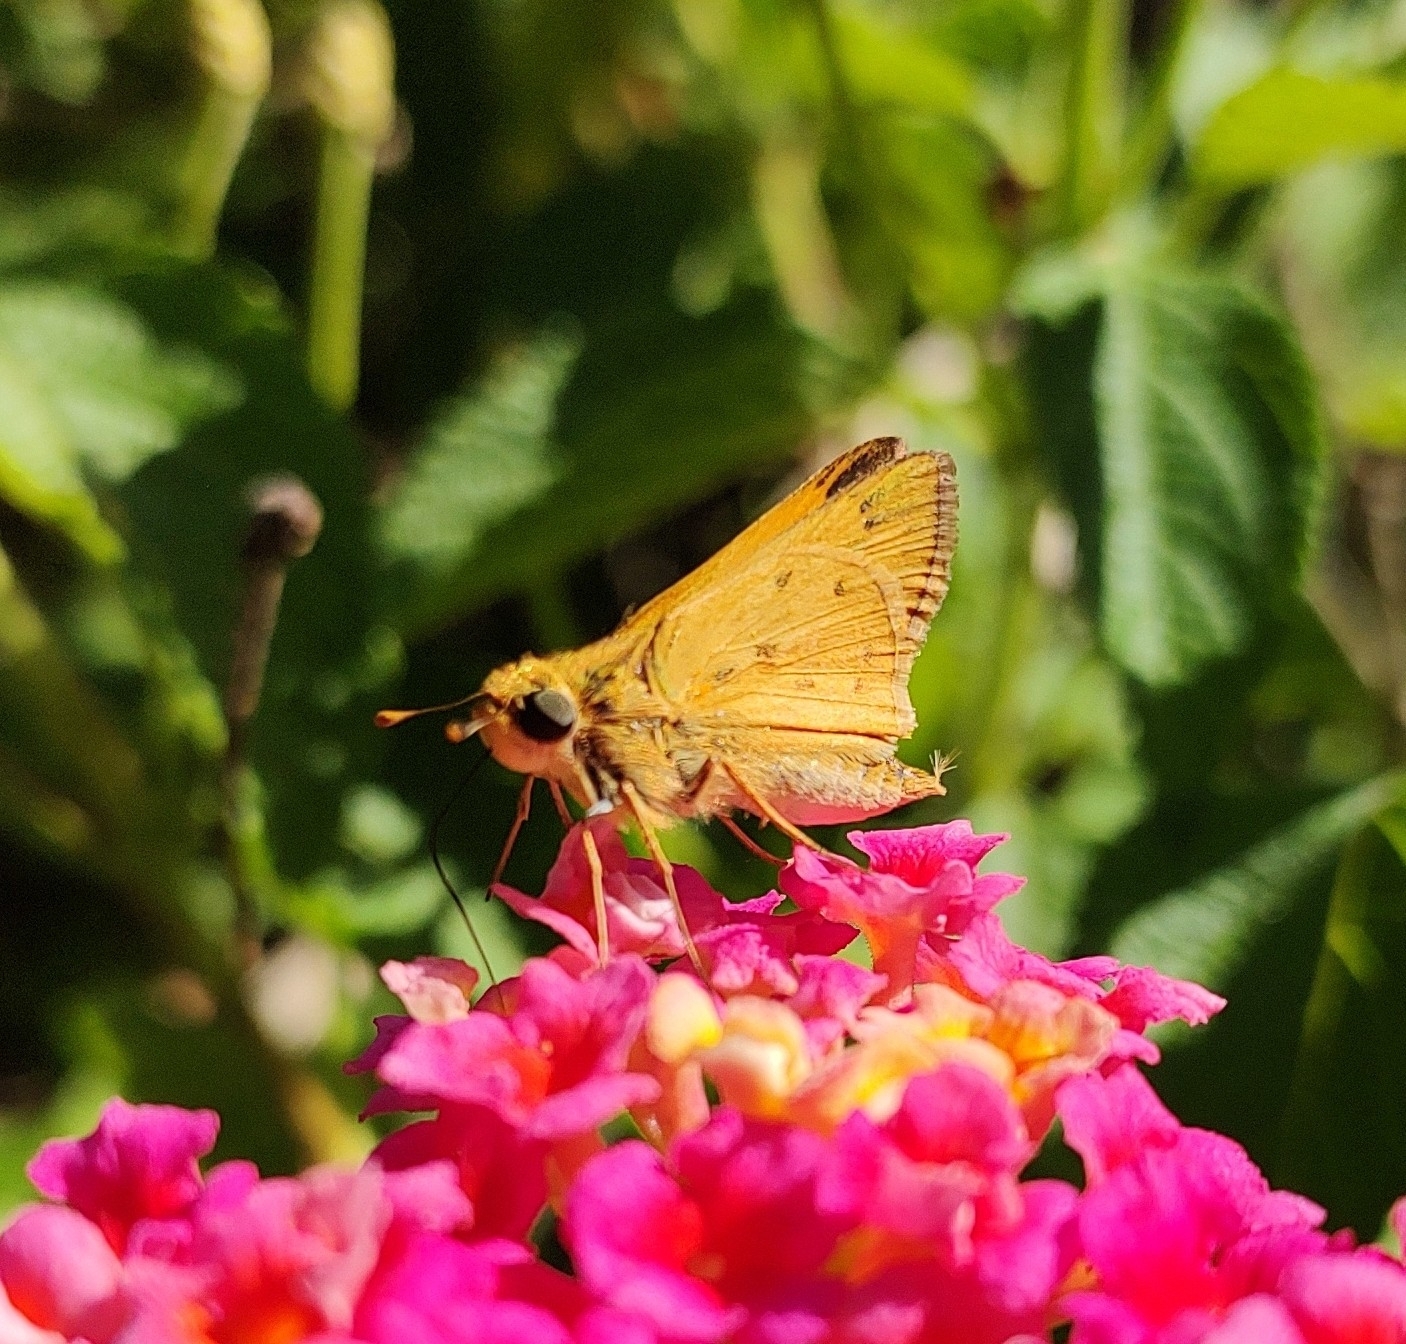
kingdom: Animalia
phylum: Arthropoda
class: Insecta
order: Lepidoptera
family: Hesperiidae
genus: Hylephila
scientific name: Hylephila phyleus
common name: Fiery skipper
